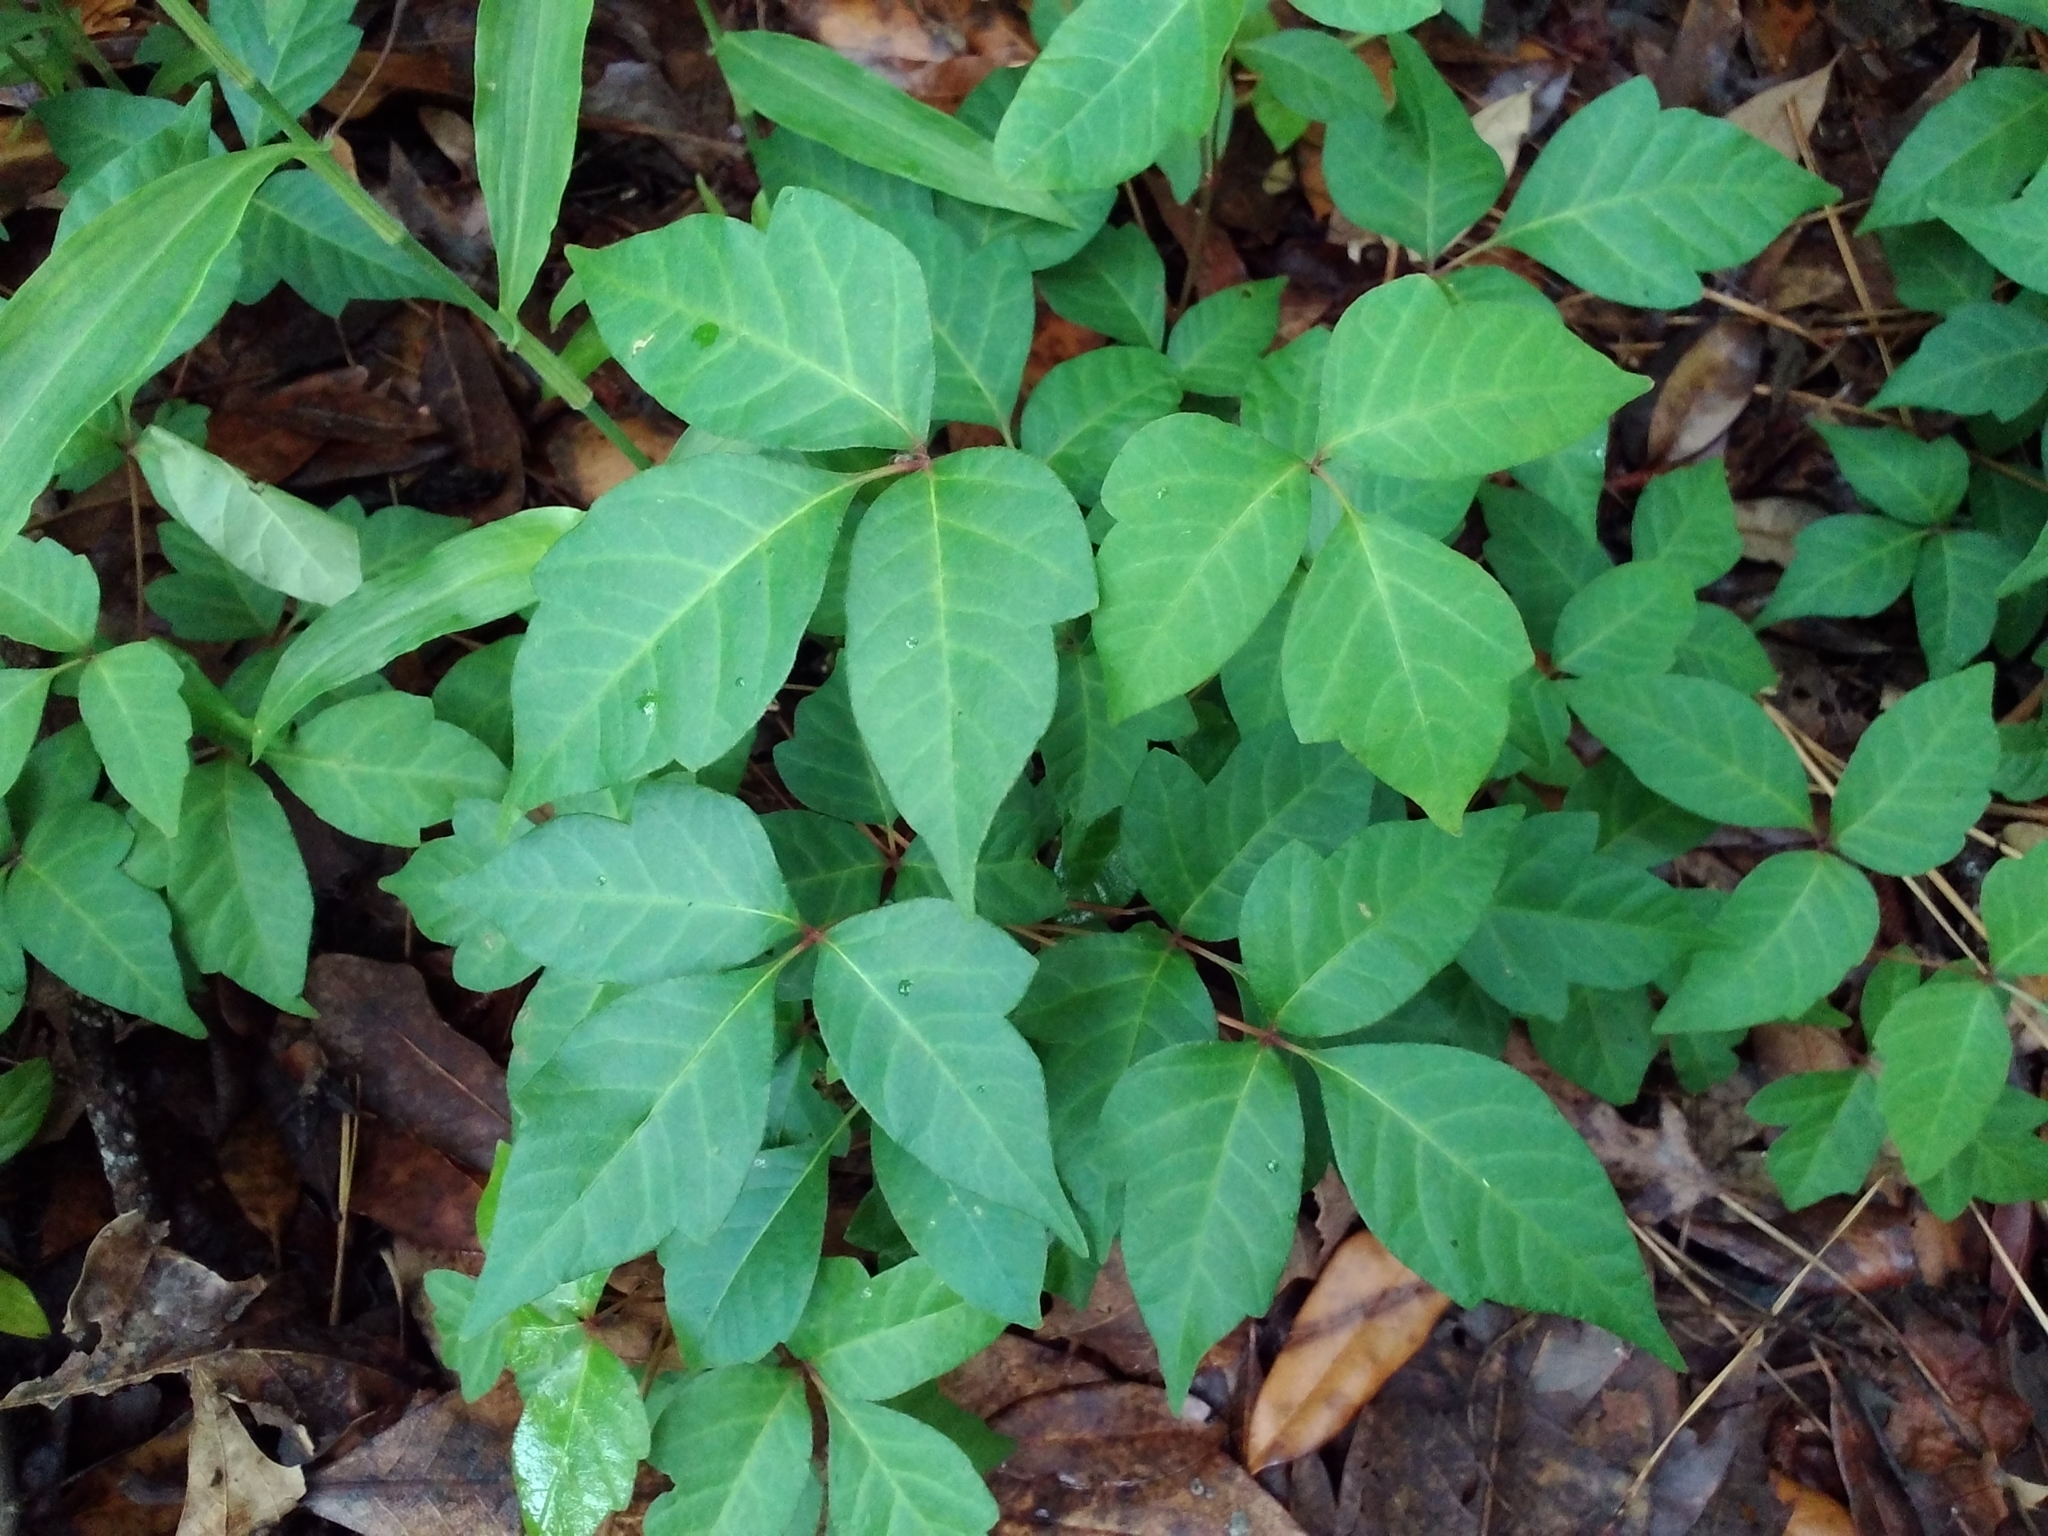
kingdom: Plantae
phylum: Tracheophyta
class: Magnoliopsida
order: Sapindales
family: Anacardiaceae
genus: Toxicodendron
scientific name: Toxicodendron radicans
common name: Poison ivy
